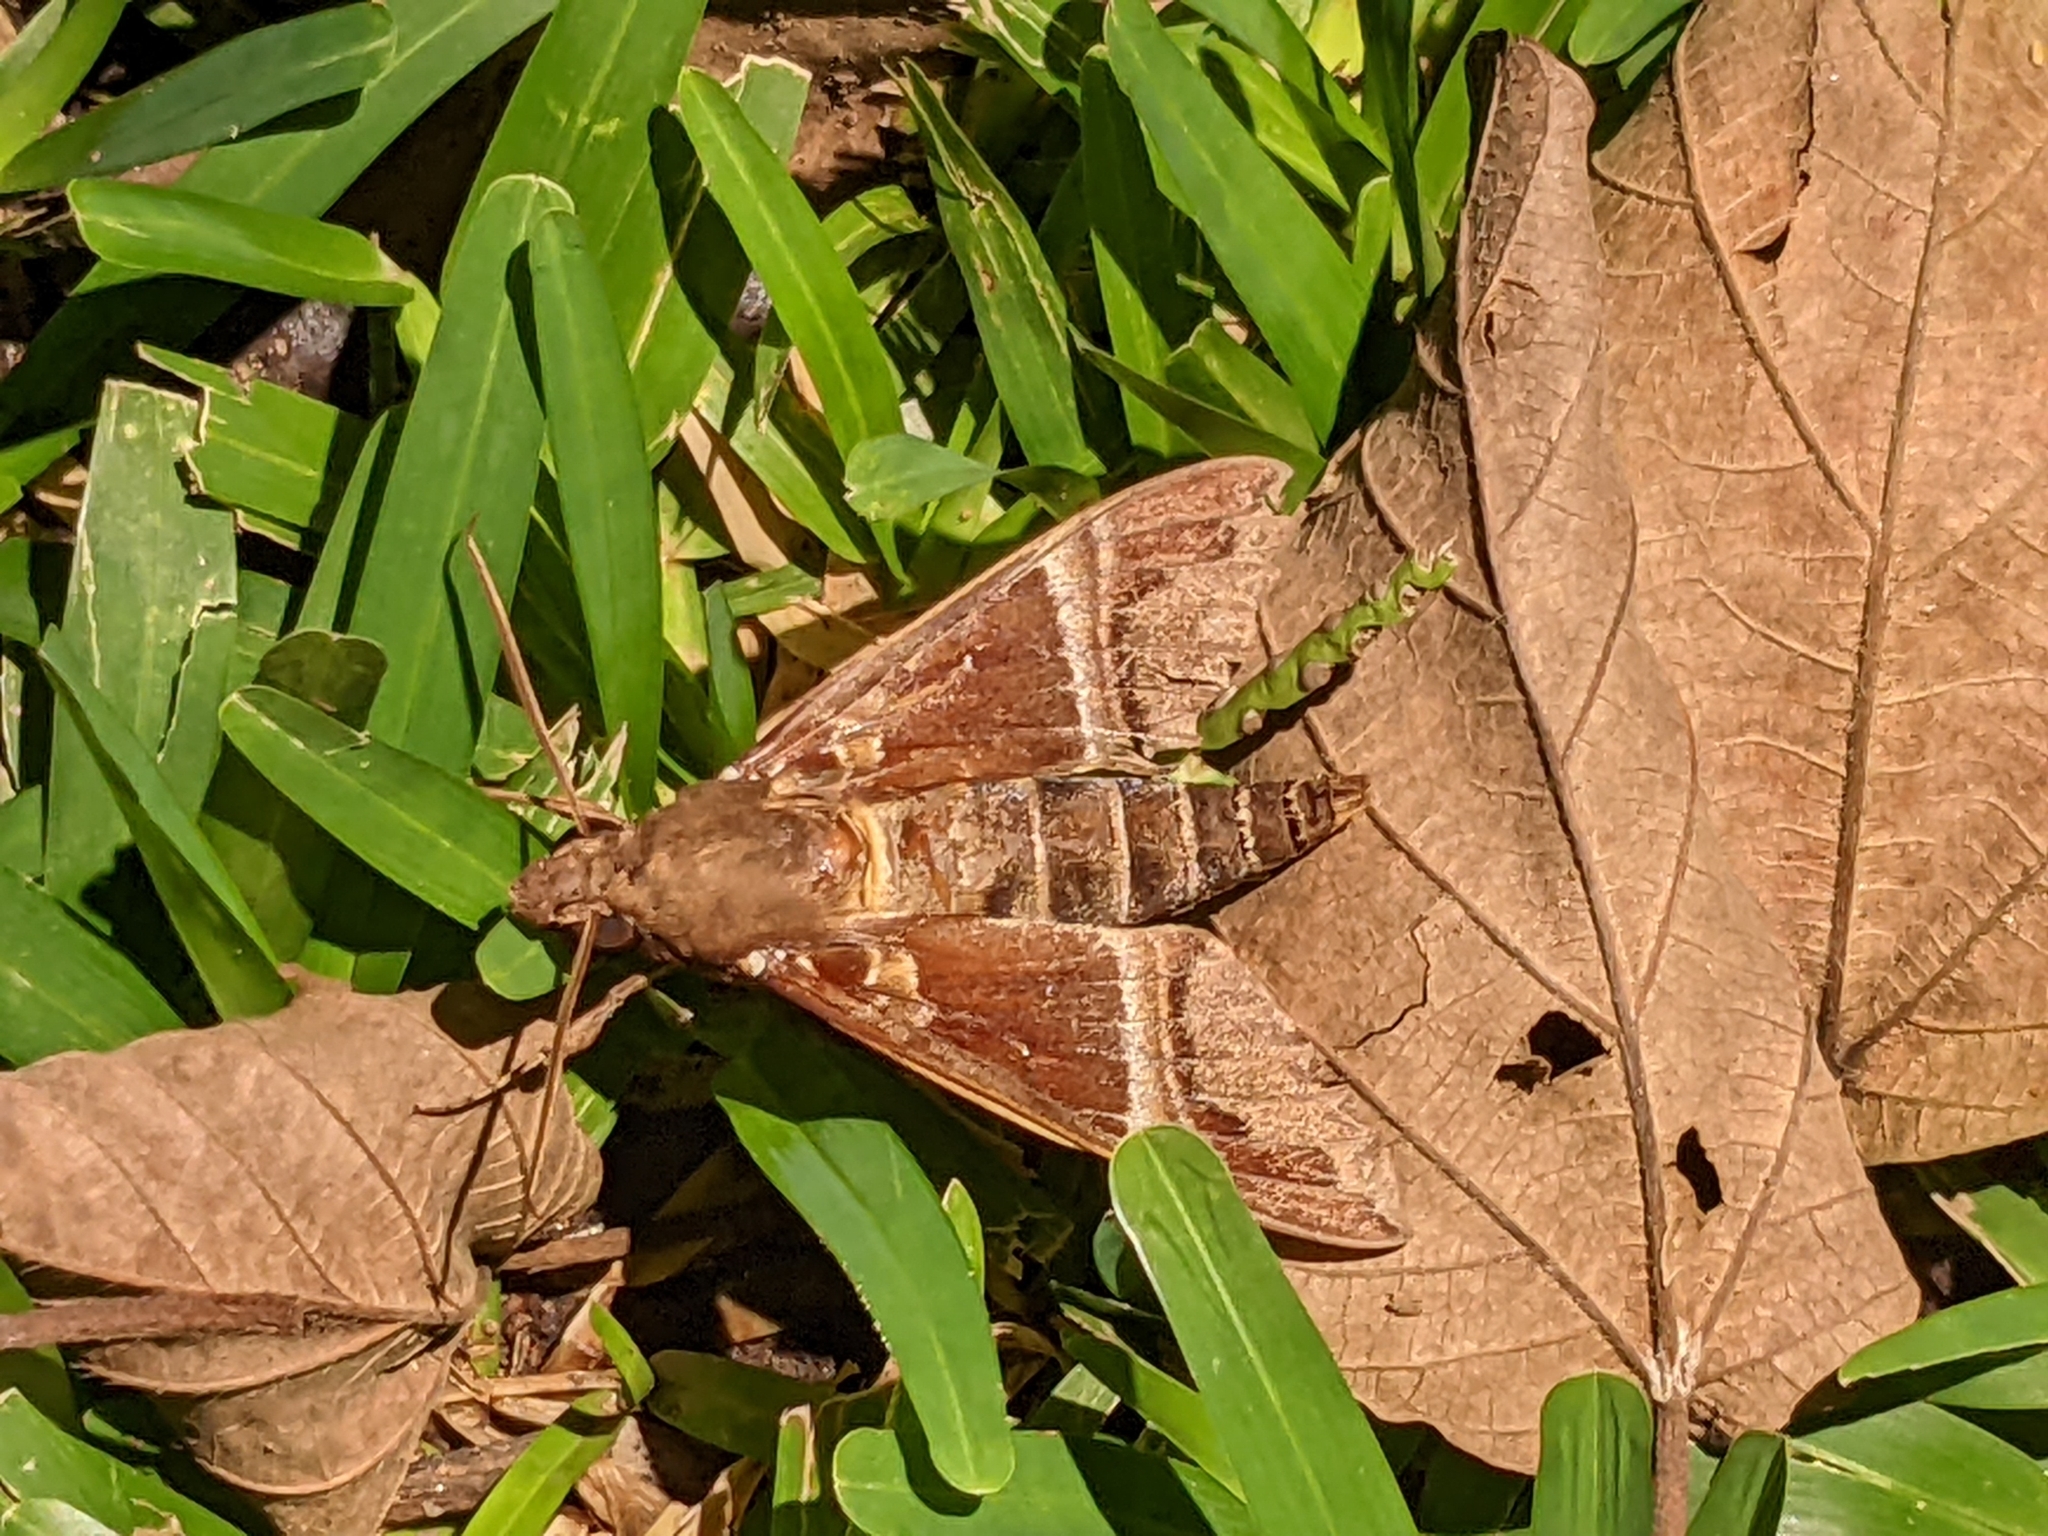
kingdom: Animalia
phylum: Arthropoda
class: Insecta
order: Lepidoptera
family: Sphingidae
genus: Nephele
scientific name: Nephele oenopion
